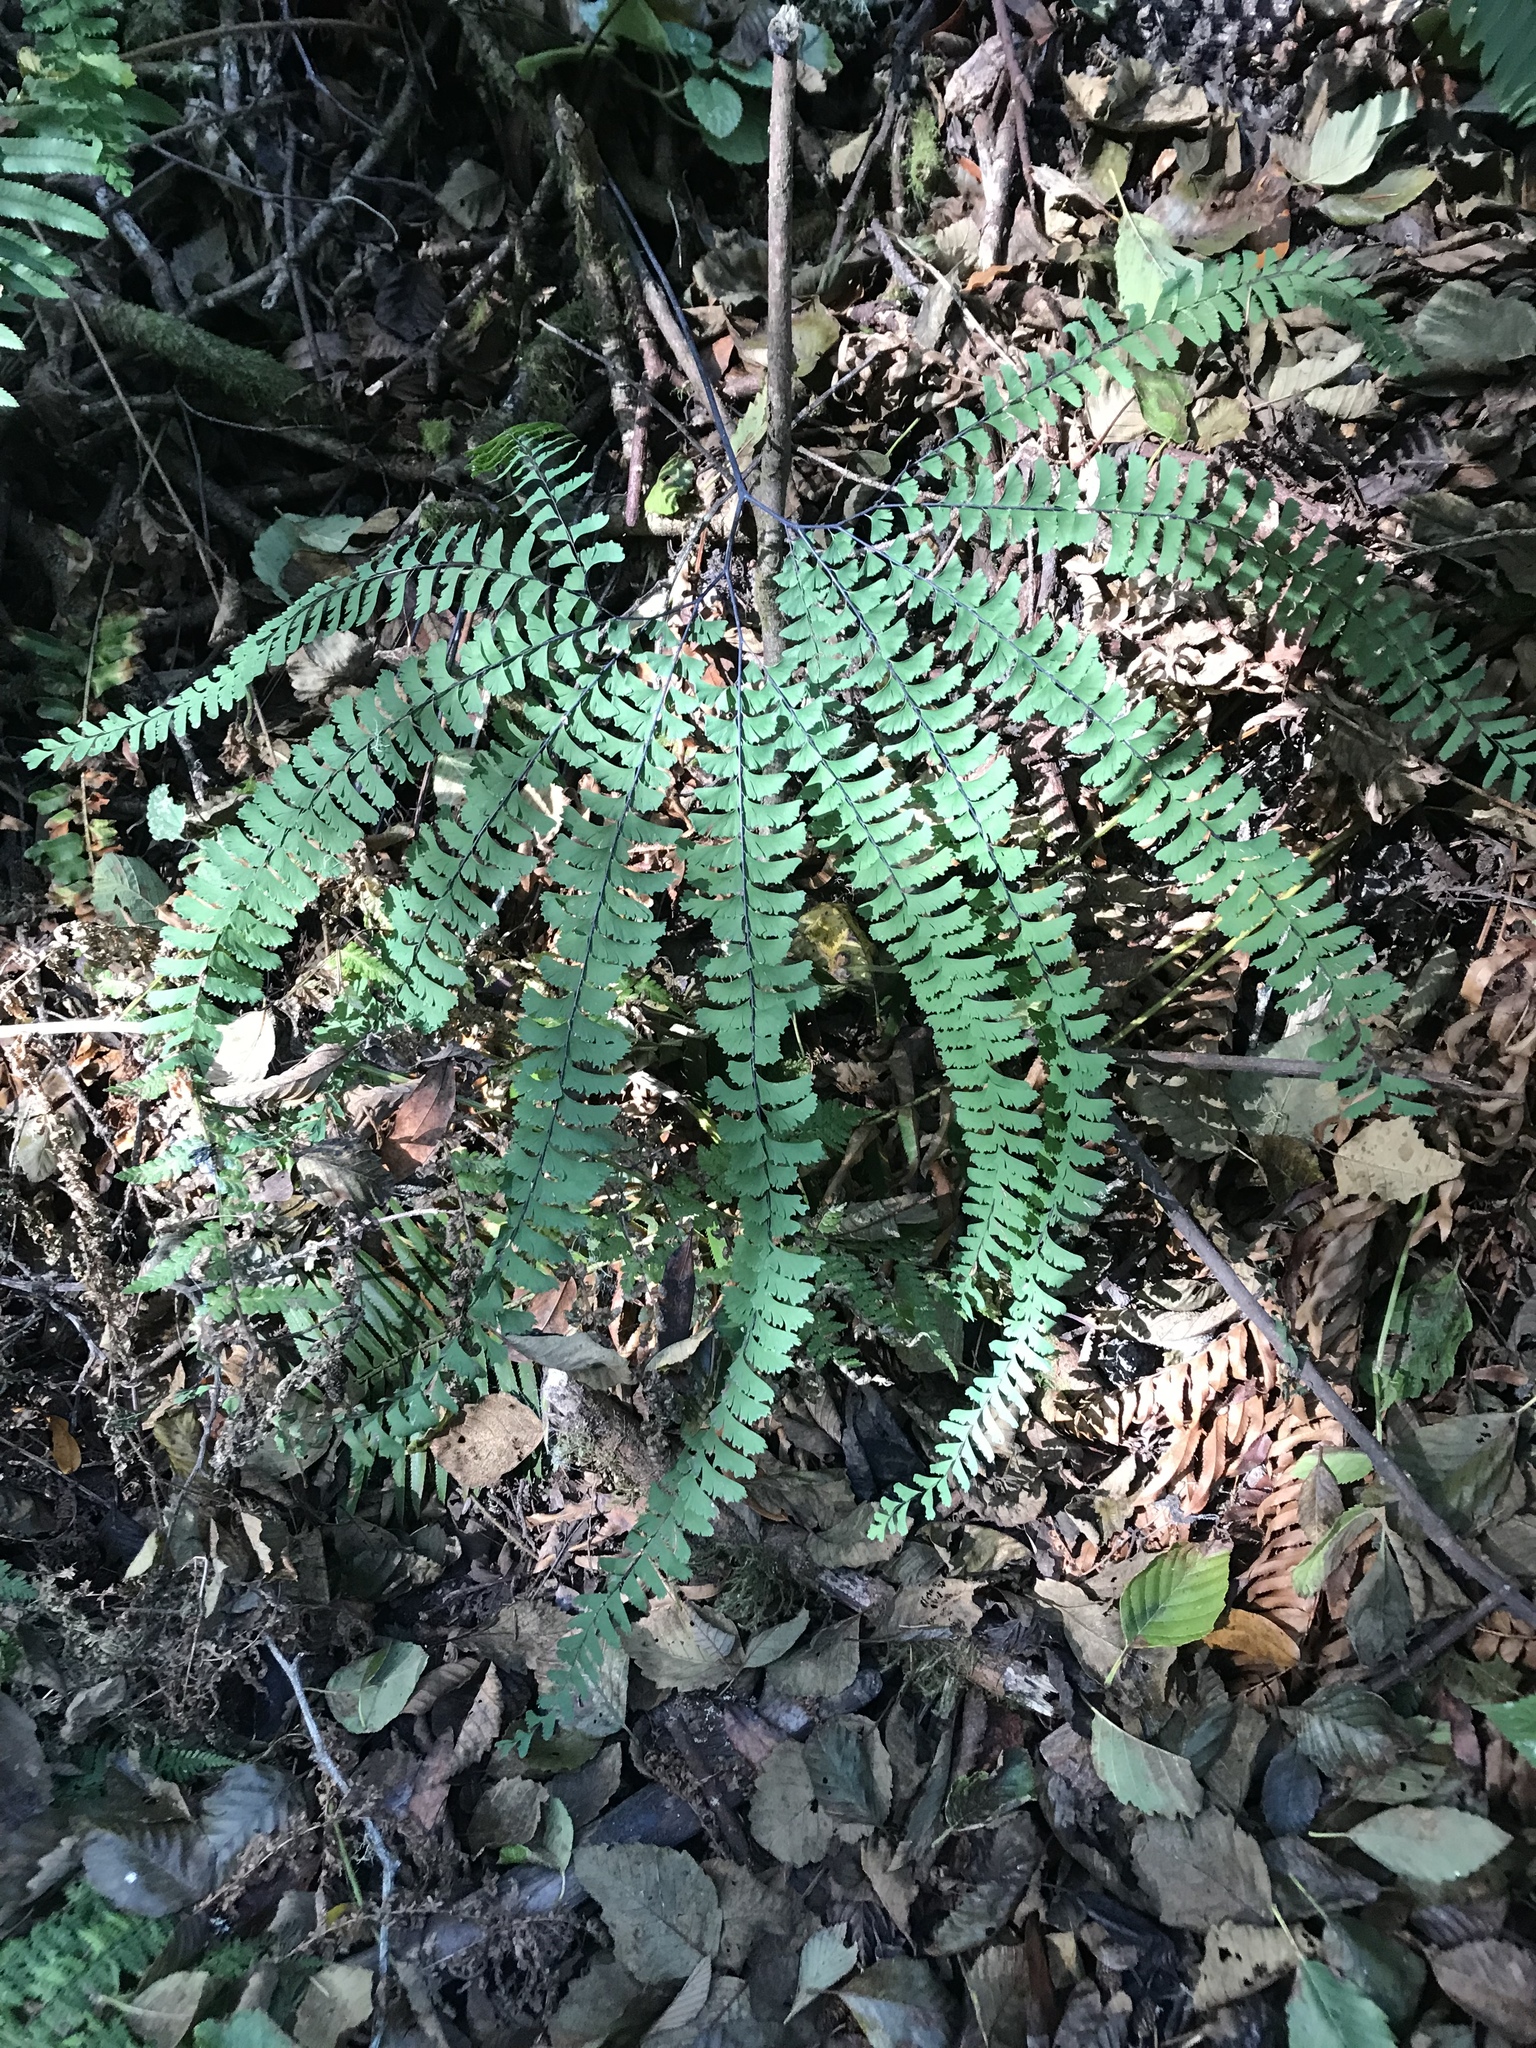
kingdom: Plantae
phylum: Tracheophyta
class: Polypodiopsida
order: Polypodiales
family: Pteridaceae
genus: Adiantum
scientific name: Adiantum aleuticum
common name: Aleutian maidenhair fern
